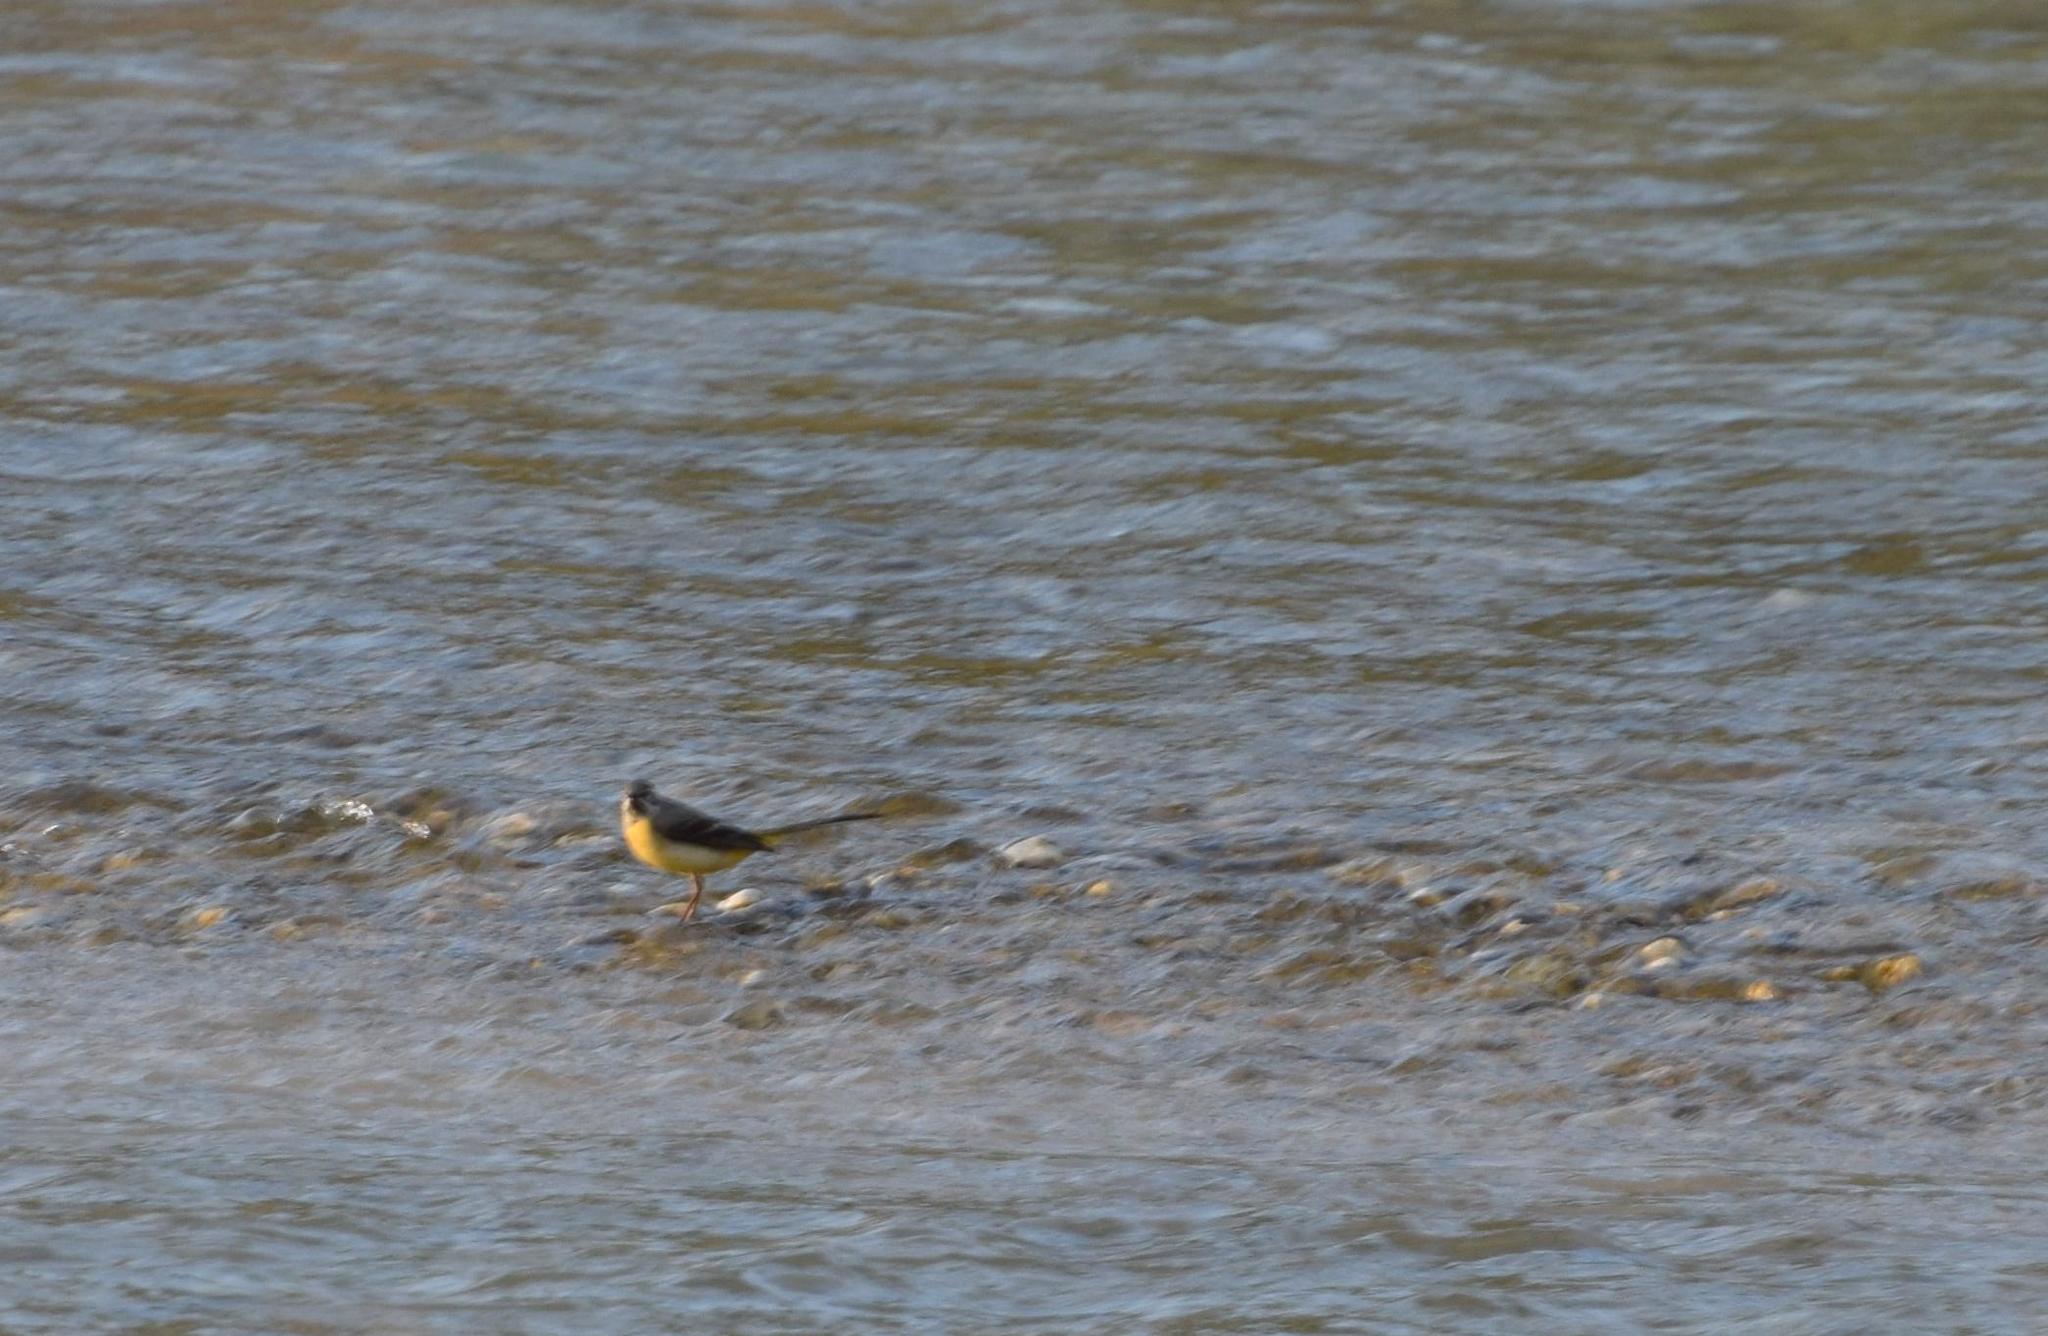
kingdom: Animalia
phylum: Chordata
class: Aves
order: Passeriformes
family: Motacillidae
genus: Motacilla
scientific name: Motacilla cinerea
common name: Grey wagtail
